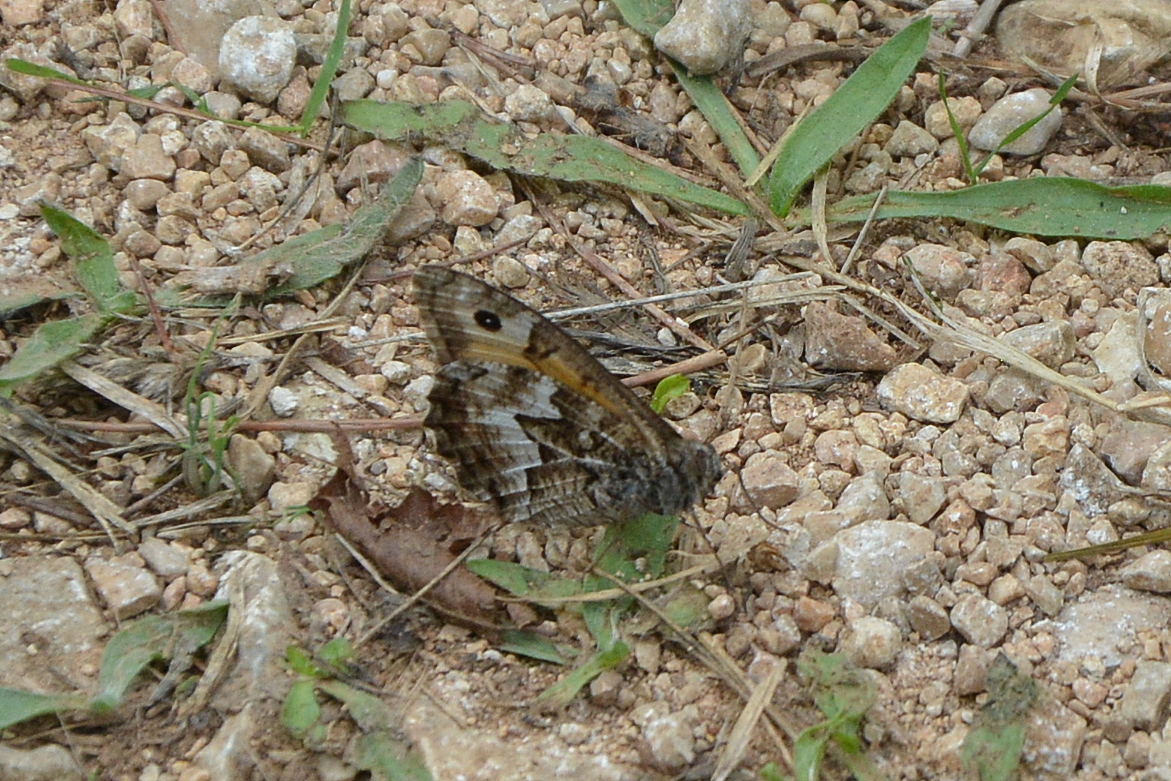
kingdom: Animalia
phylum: Arthropoda
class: Insecta
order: Lepidoptera
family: Nymphalidae
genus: Hipparchia
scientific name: Hipparchia semele
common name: Grayling
